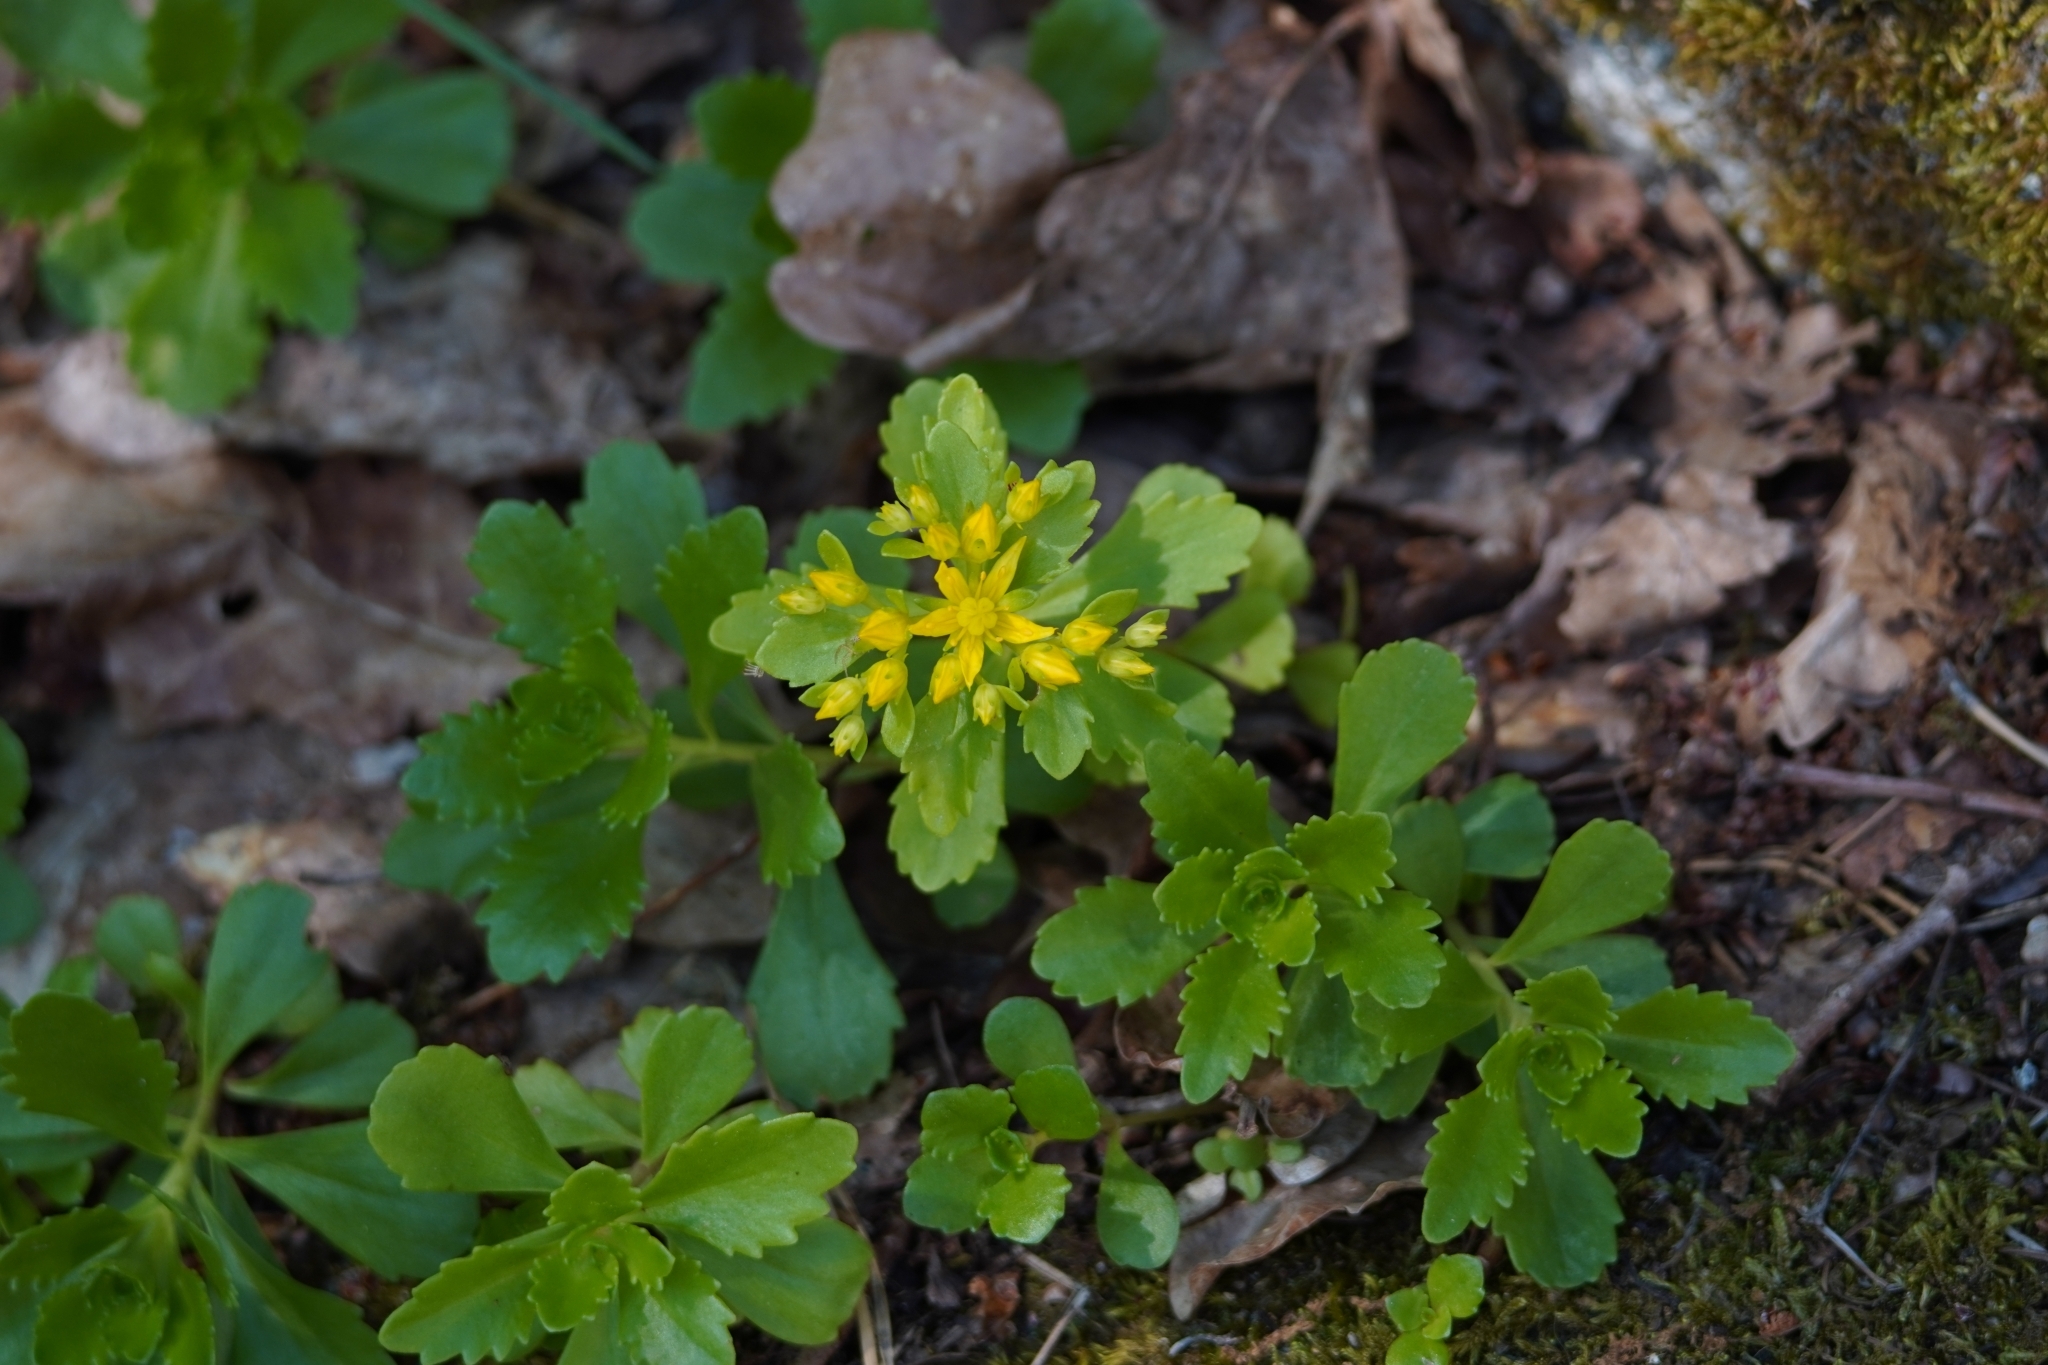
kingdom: Plantae
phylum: Tracheophyta
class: Magnoliopsida
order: Saxifragales
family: Crassulaceae
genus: Phedimus
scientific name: Phedimus ellacombeanus
